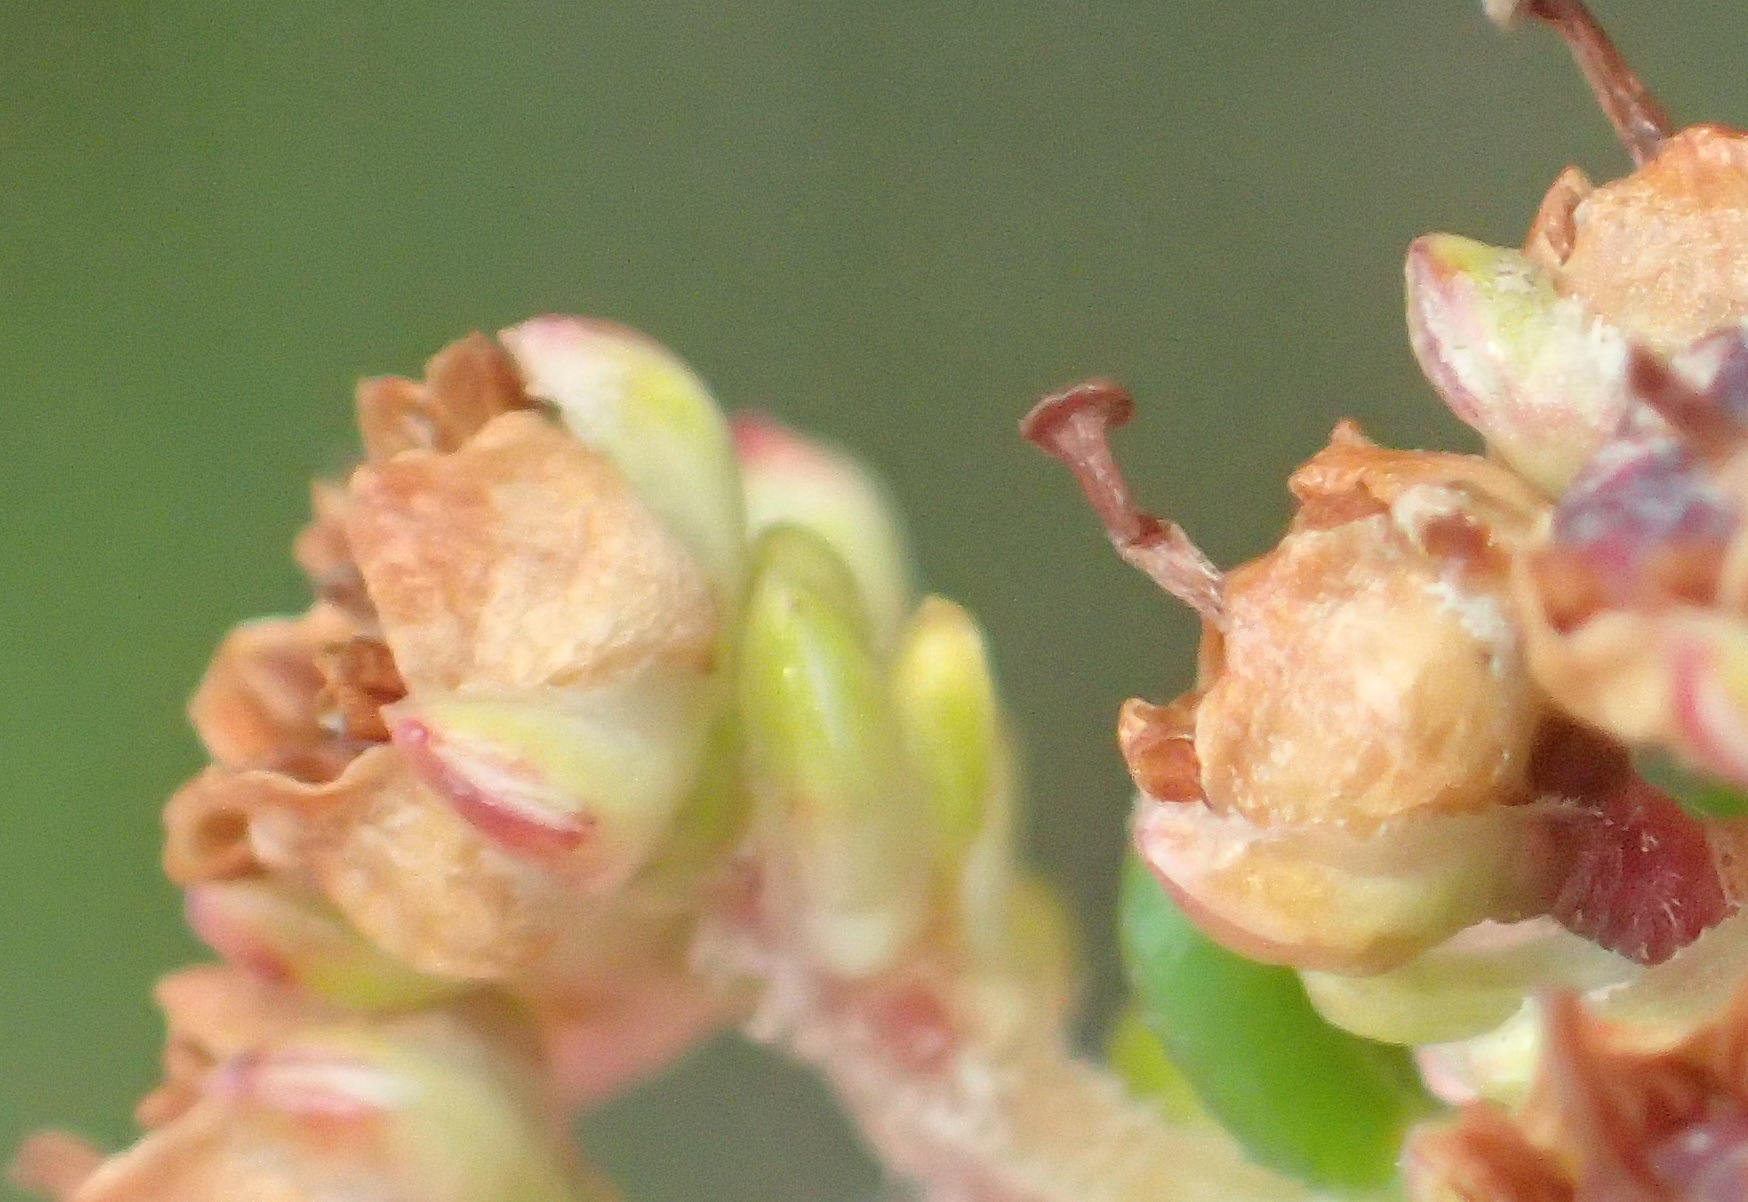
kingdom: Plantae
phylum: Tracheophyta
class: Magnoliopsida
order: Ericales
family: Ericaceae
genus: Erica
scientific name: Erica arenaria
